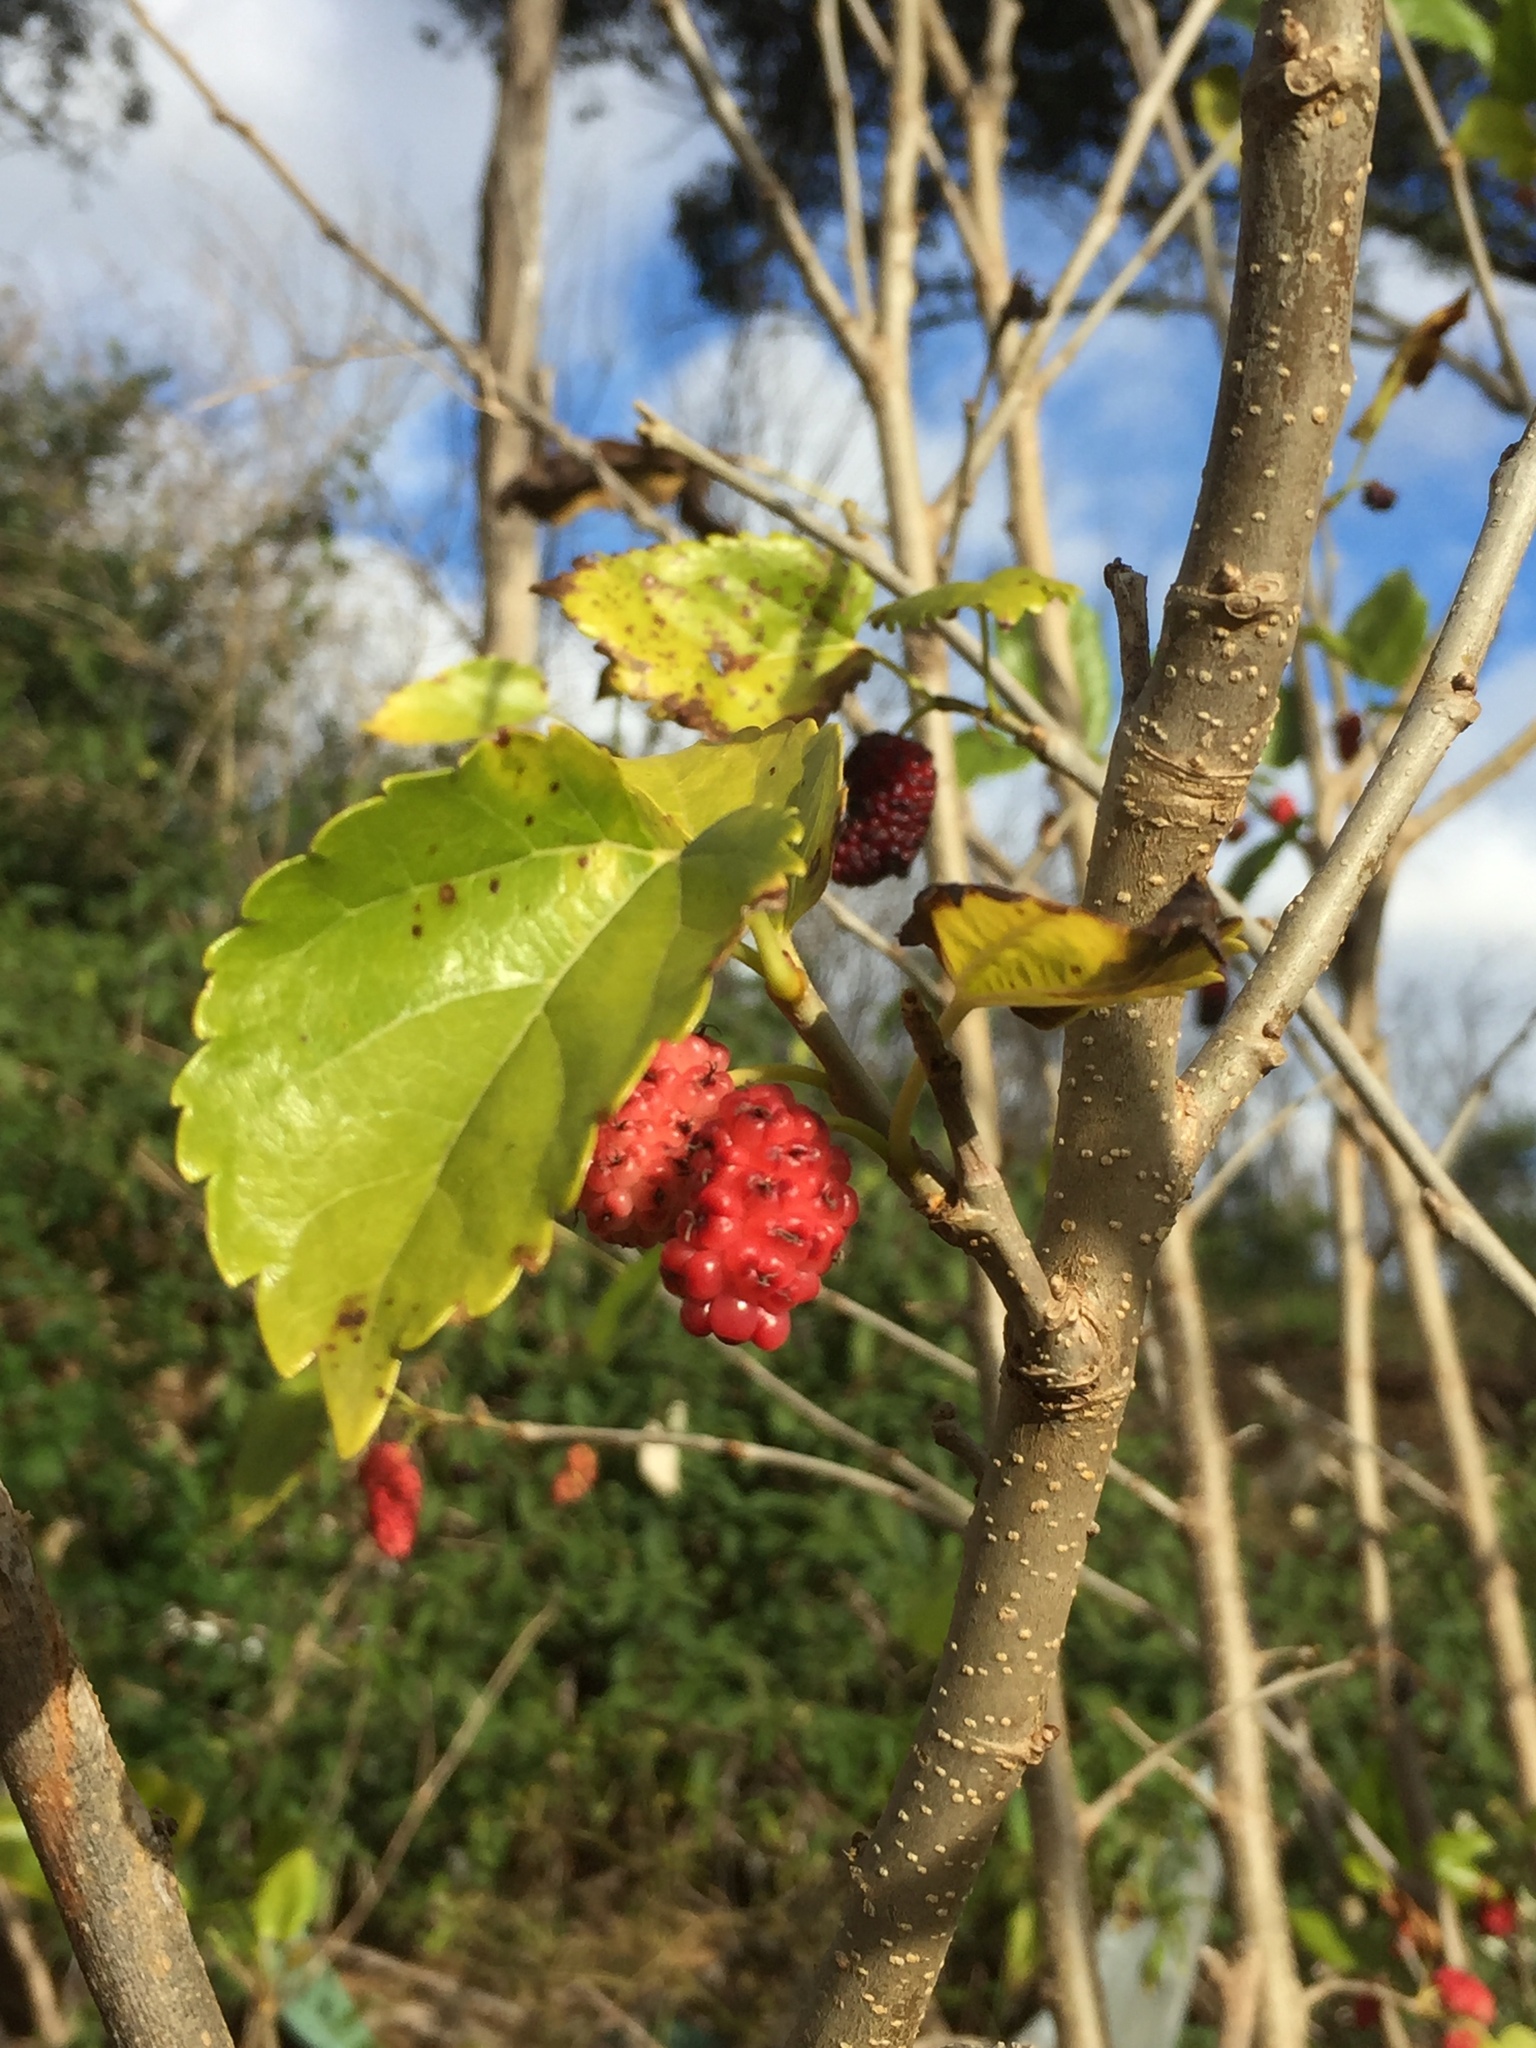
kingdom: Plantae
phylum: Tracheophyta
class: Magnoliopsida
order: Rosales
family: Moraceae
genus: Morus
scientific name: Morus alba
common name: White mulberry
